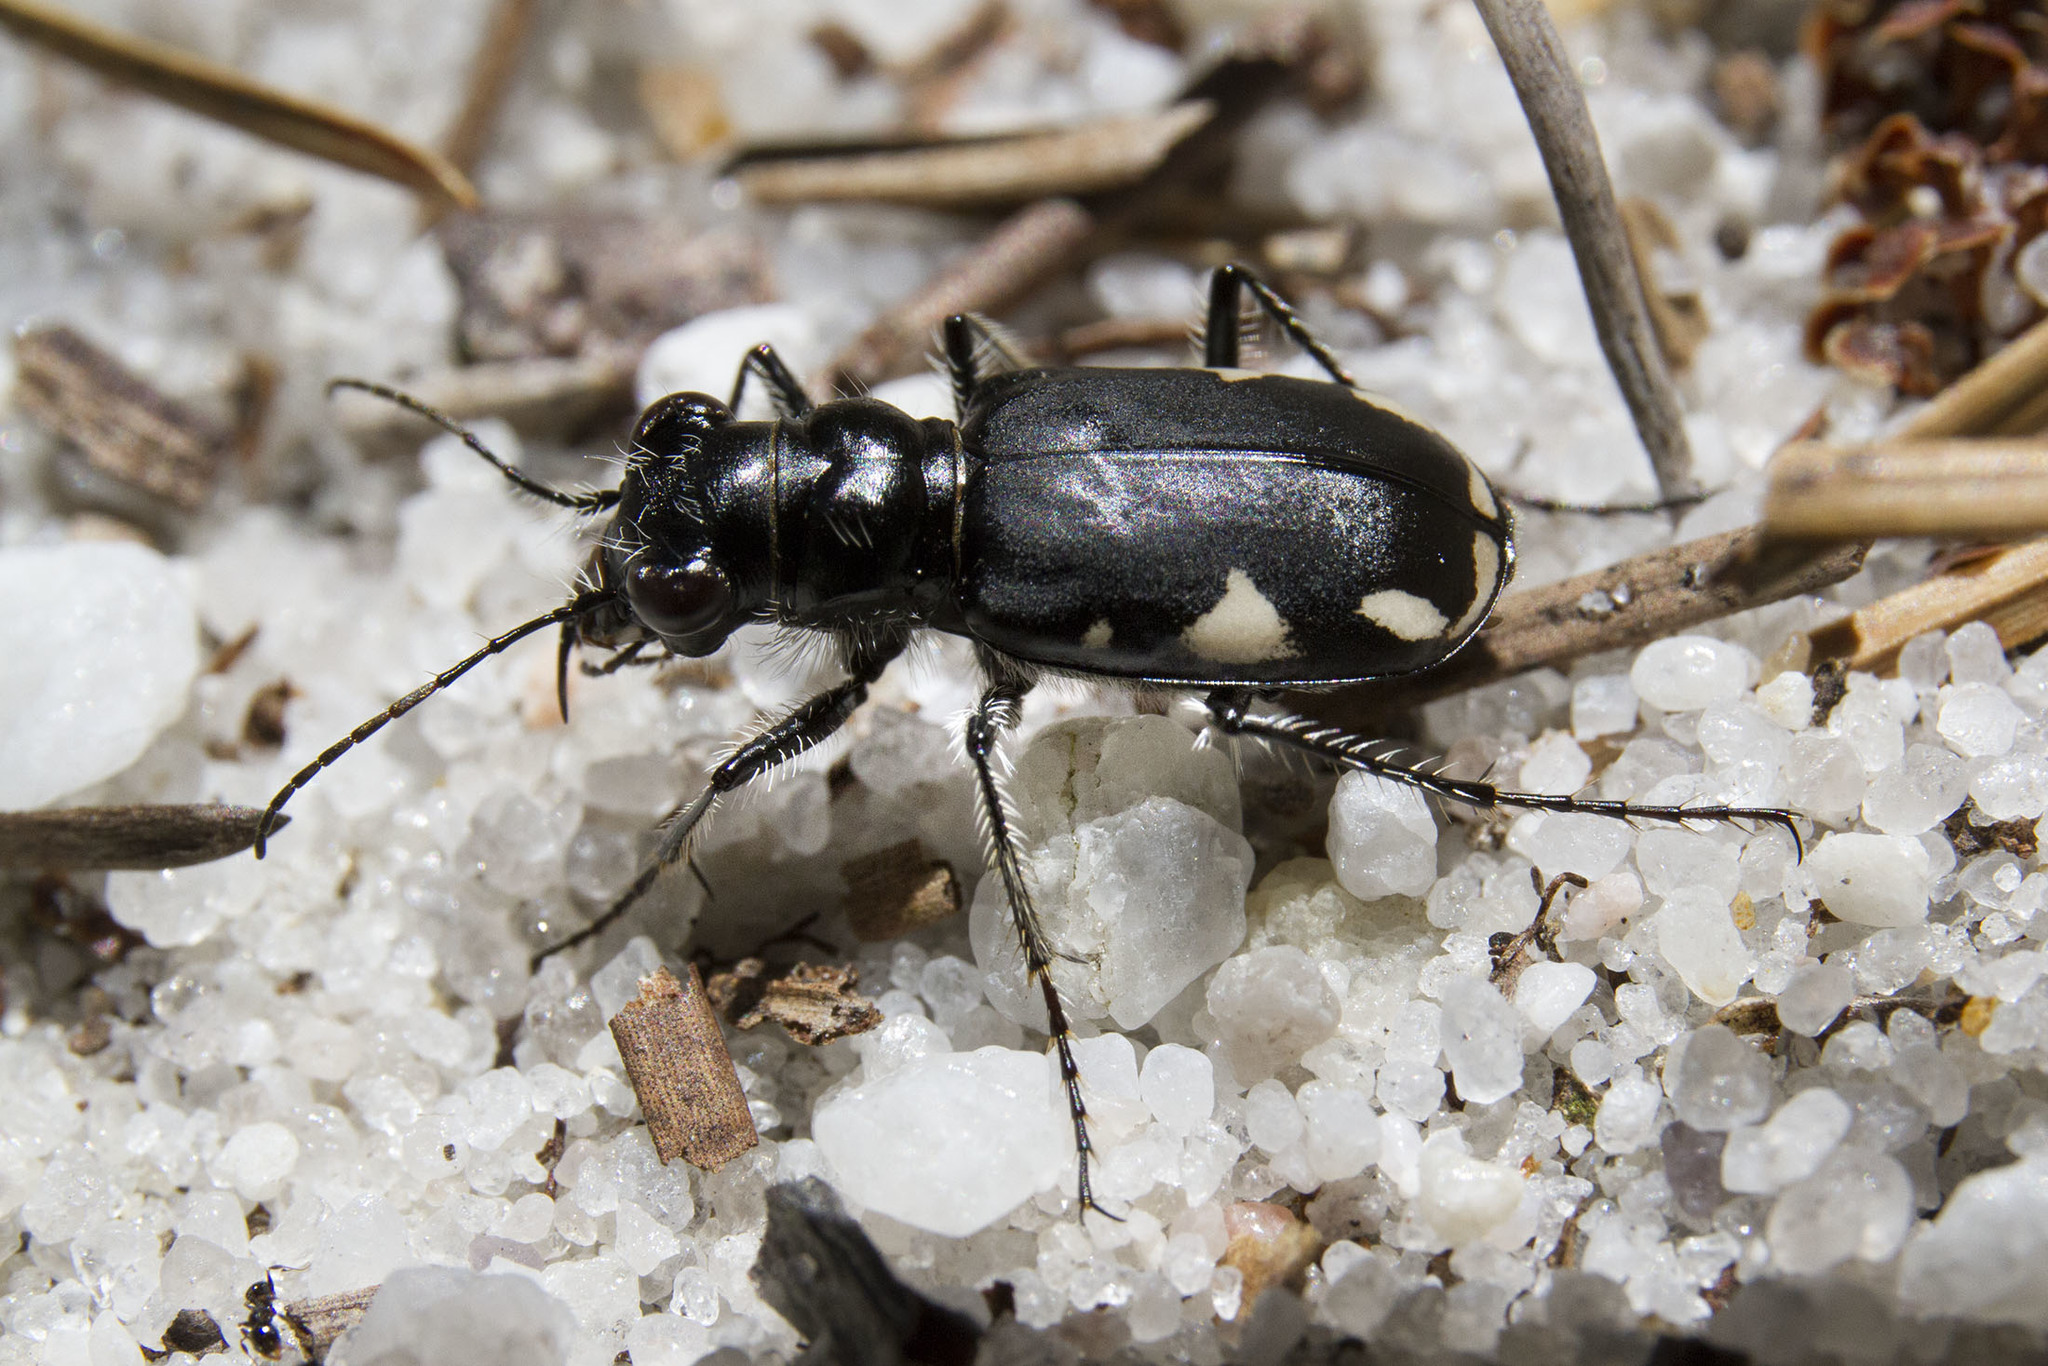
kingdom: Animalia
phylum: Arthropoda
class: Insecta
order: Coleoptera
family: Carabidae
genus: Cicindela
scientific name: Cicindela scutellaris
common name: Festive tiger beetle
